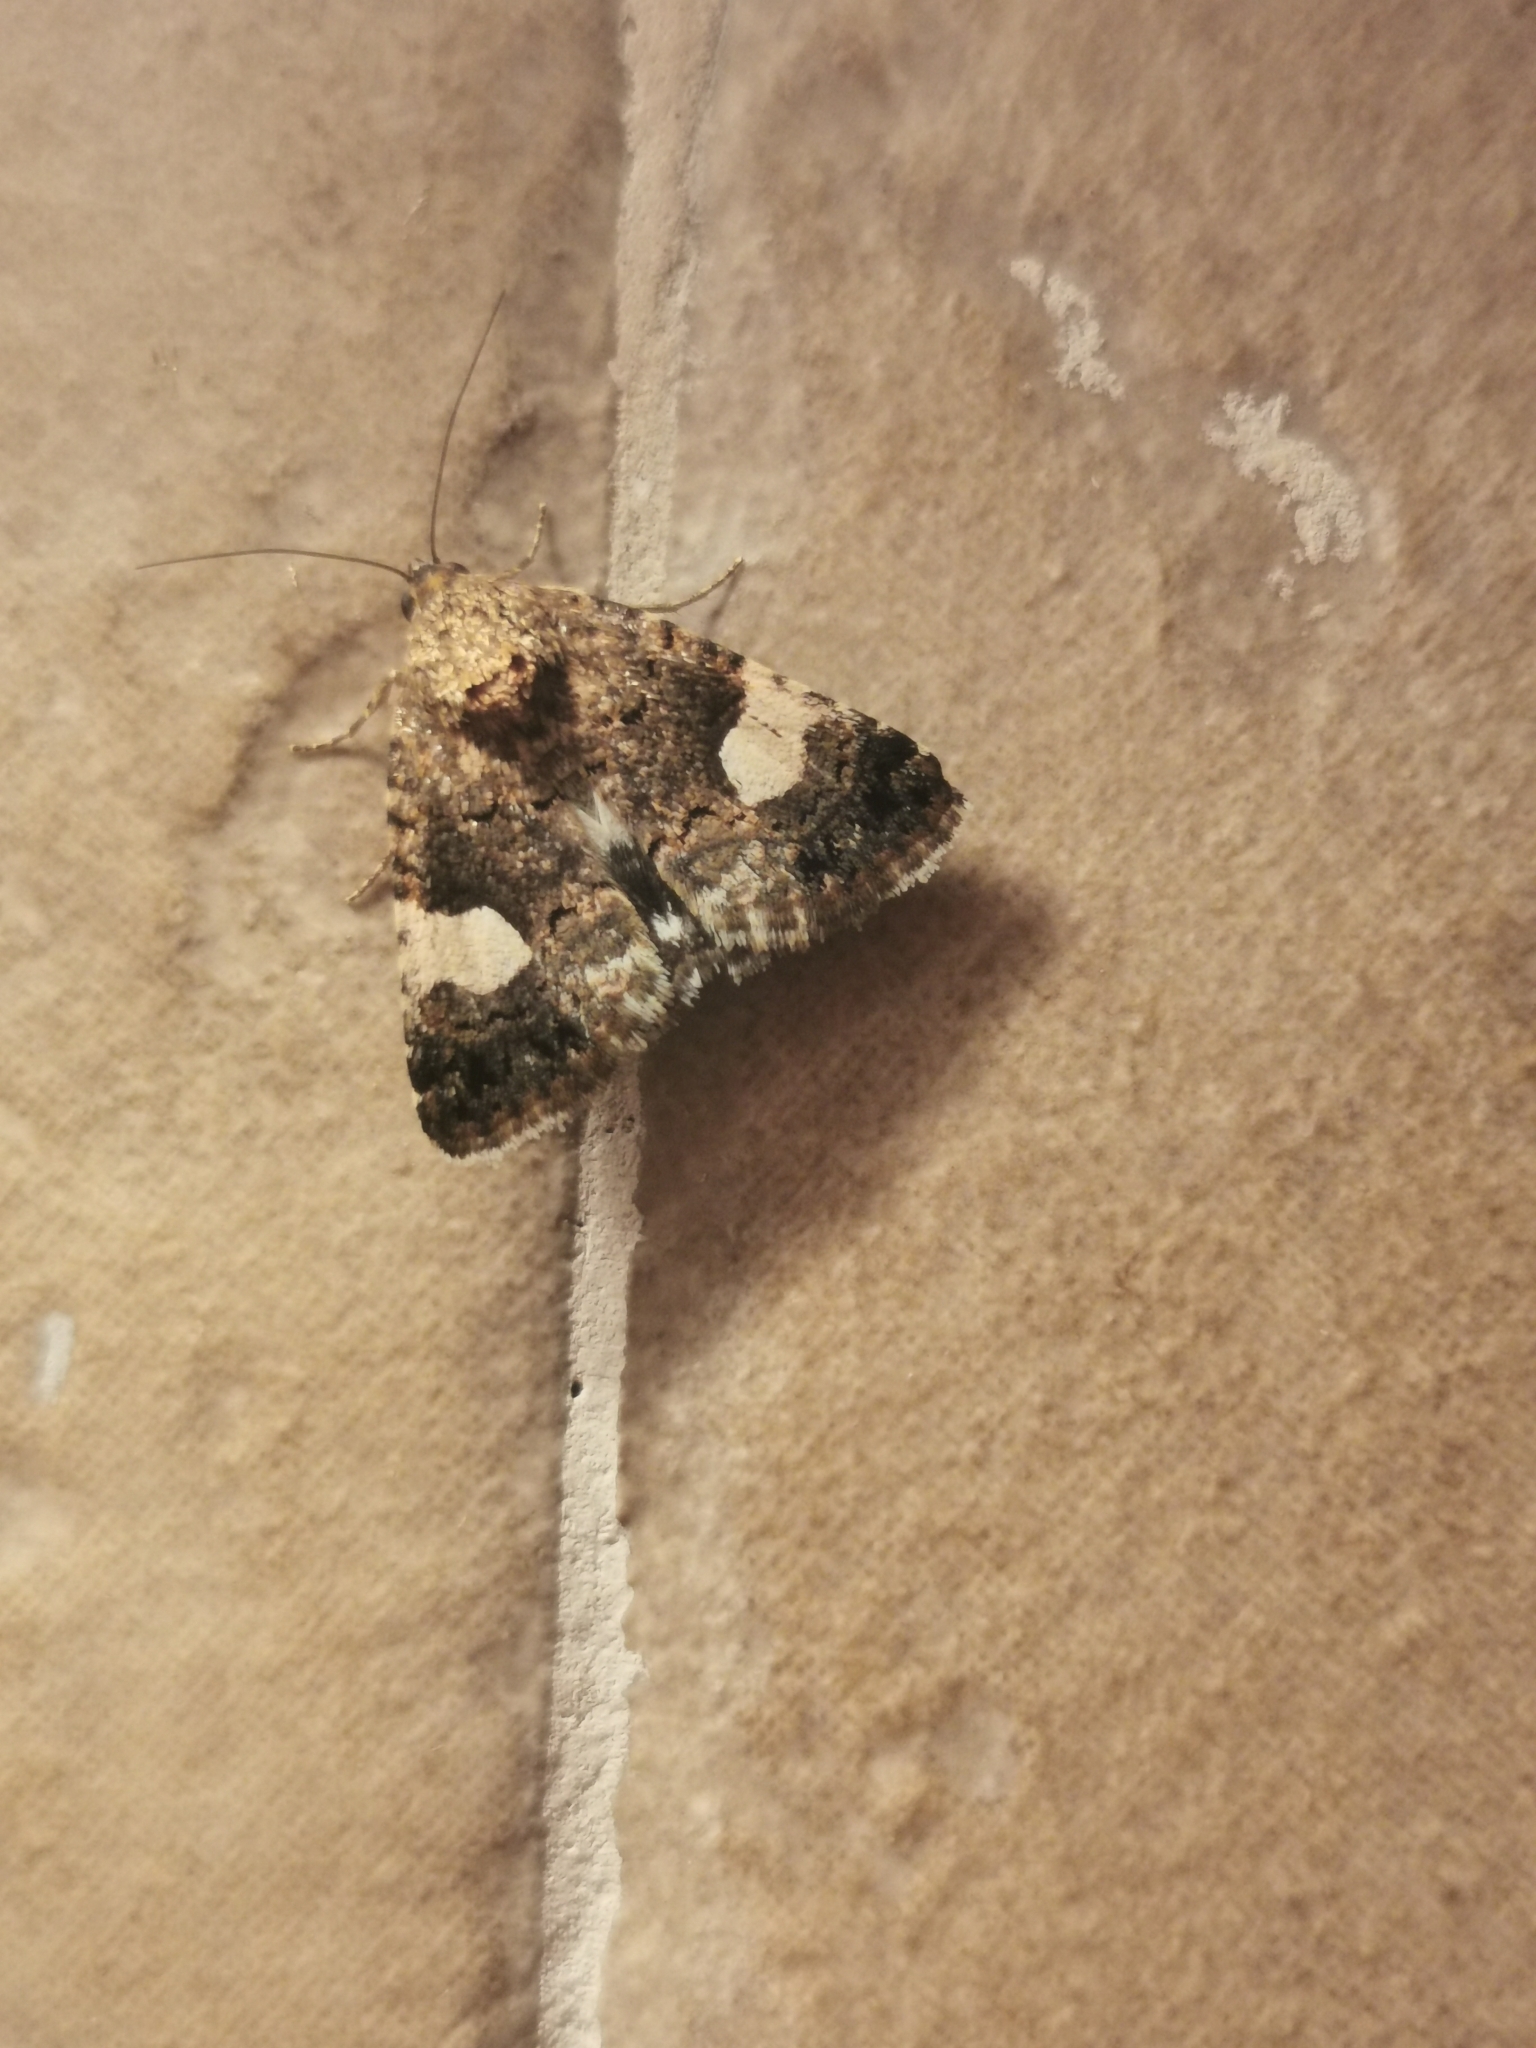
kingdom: Animalia
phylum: Arthropoda
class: Insecta
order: Lepidoptera
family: Erebidae
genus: Tyta
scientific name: Tyta luctuosa
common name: Four-spotted
